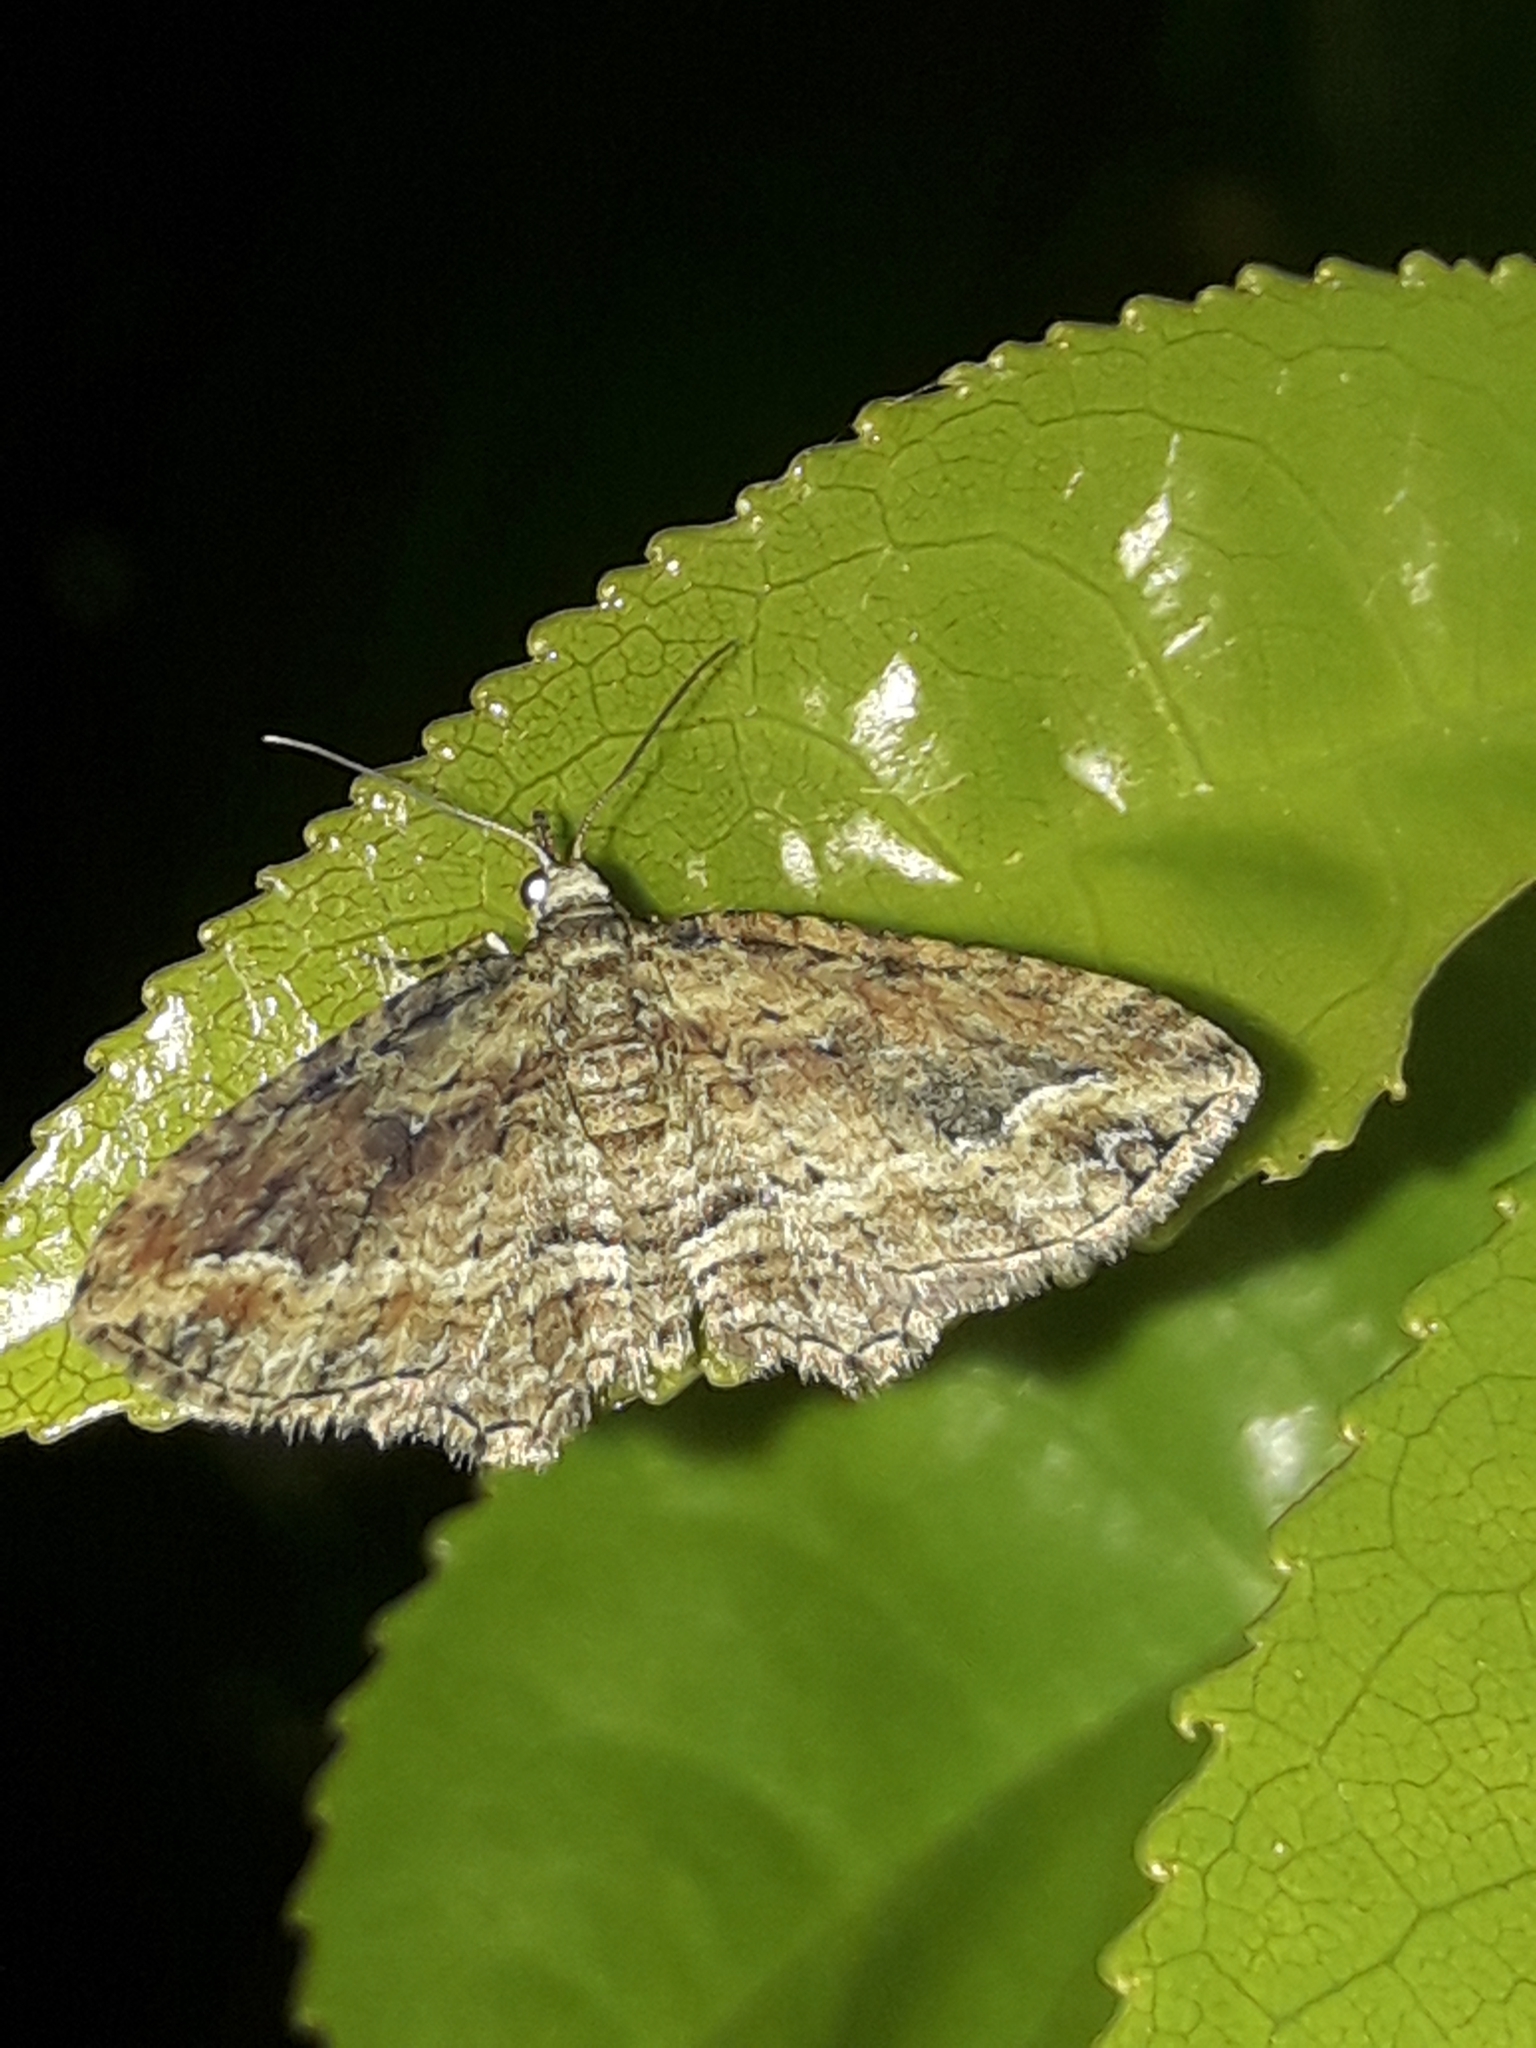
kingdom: Animalia
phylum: Arthropoda
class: Insecta
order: Lepidoptera
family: Geometridae
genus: Chloroclystis
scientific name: Chloroclystis filata
